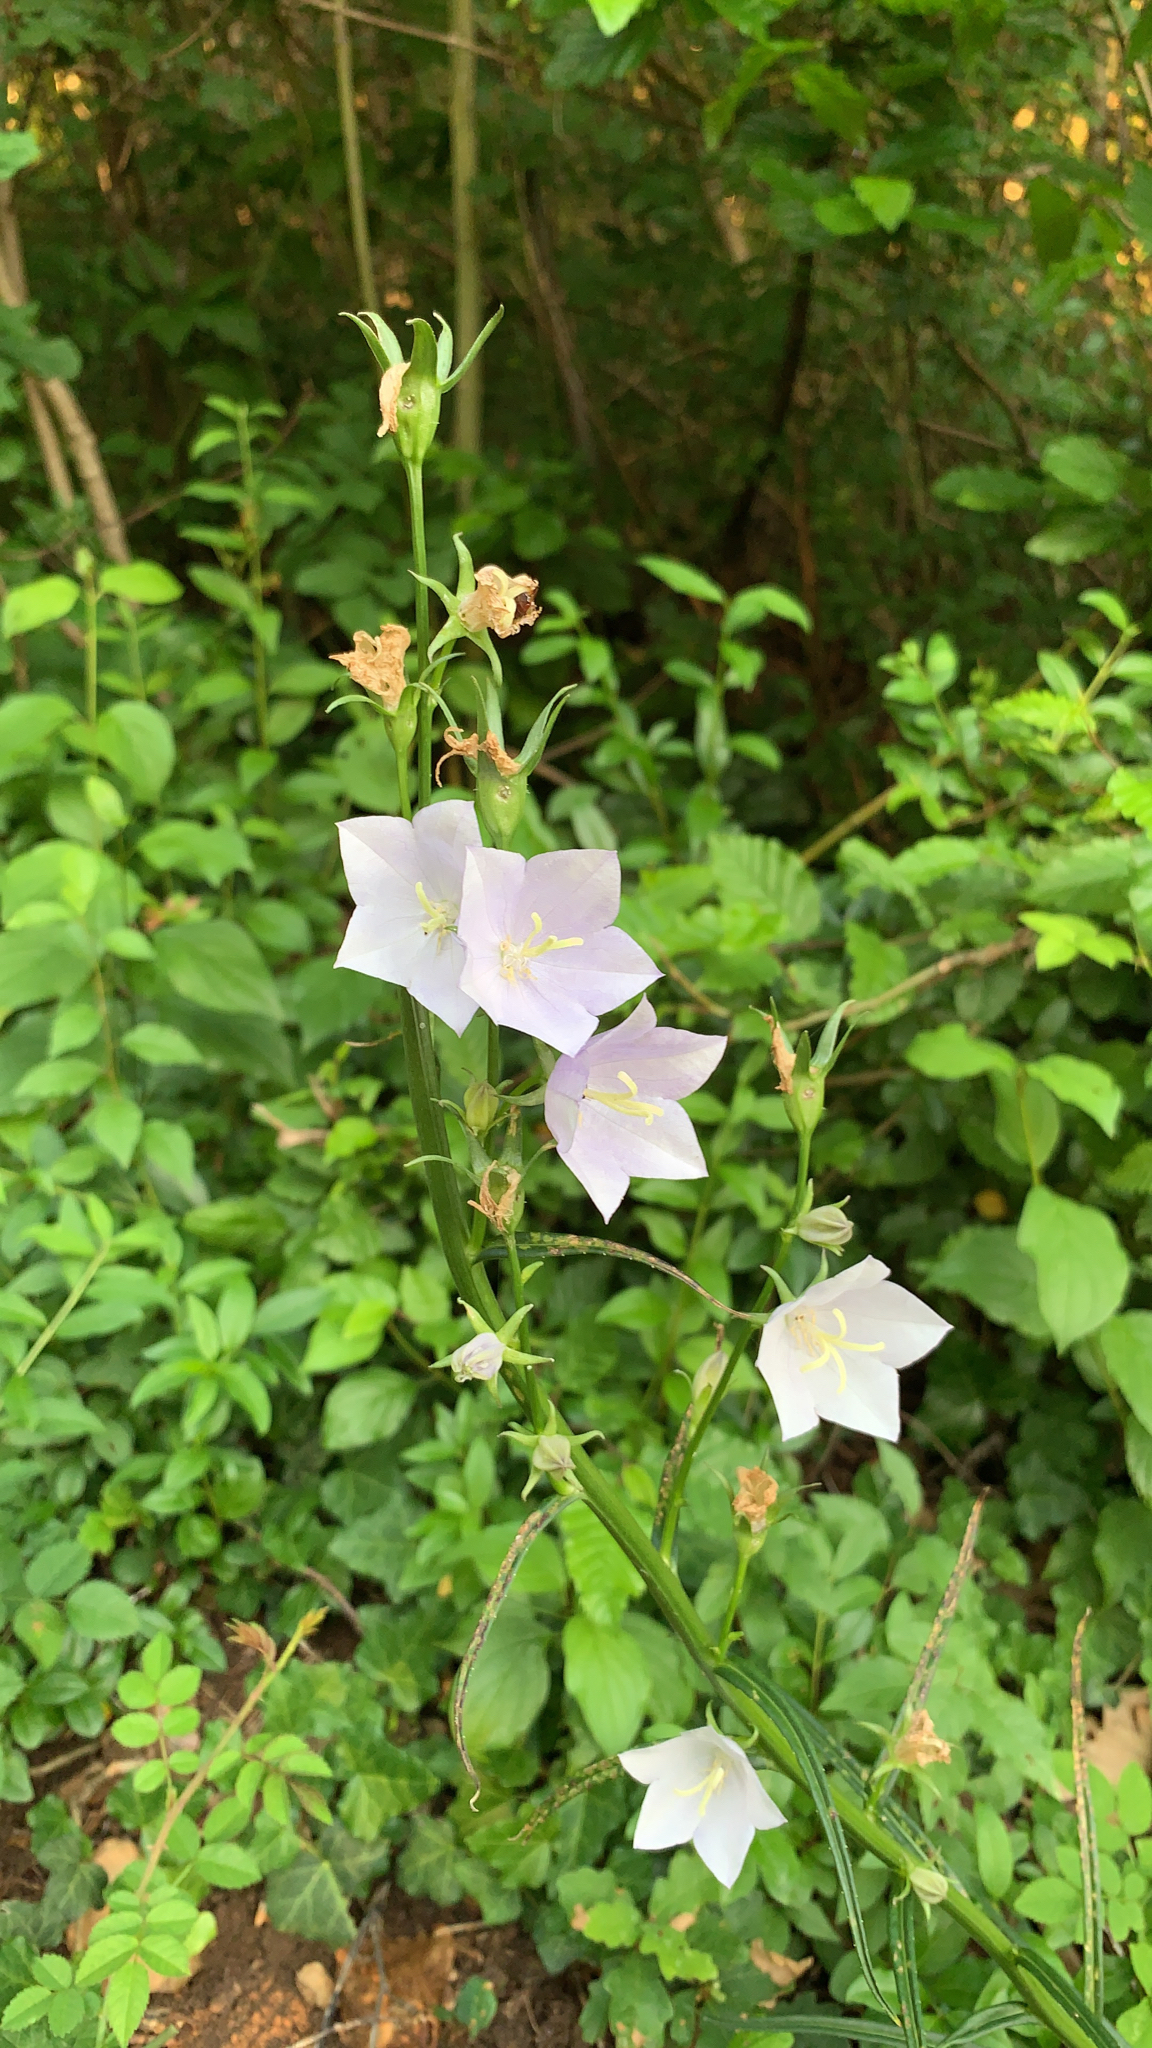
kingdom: Plantae
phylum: Tracheophyta
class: Magnoliopsida
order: Asterales
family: Campanulaceae
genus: Campanula
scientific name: Campanula persicifolia
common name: Peach-leaved bellflower
